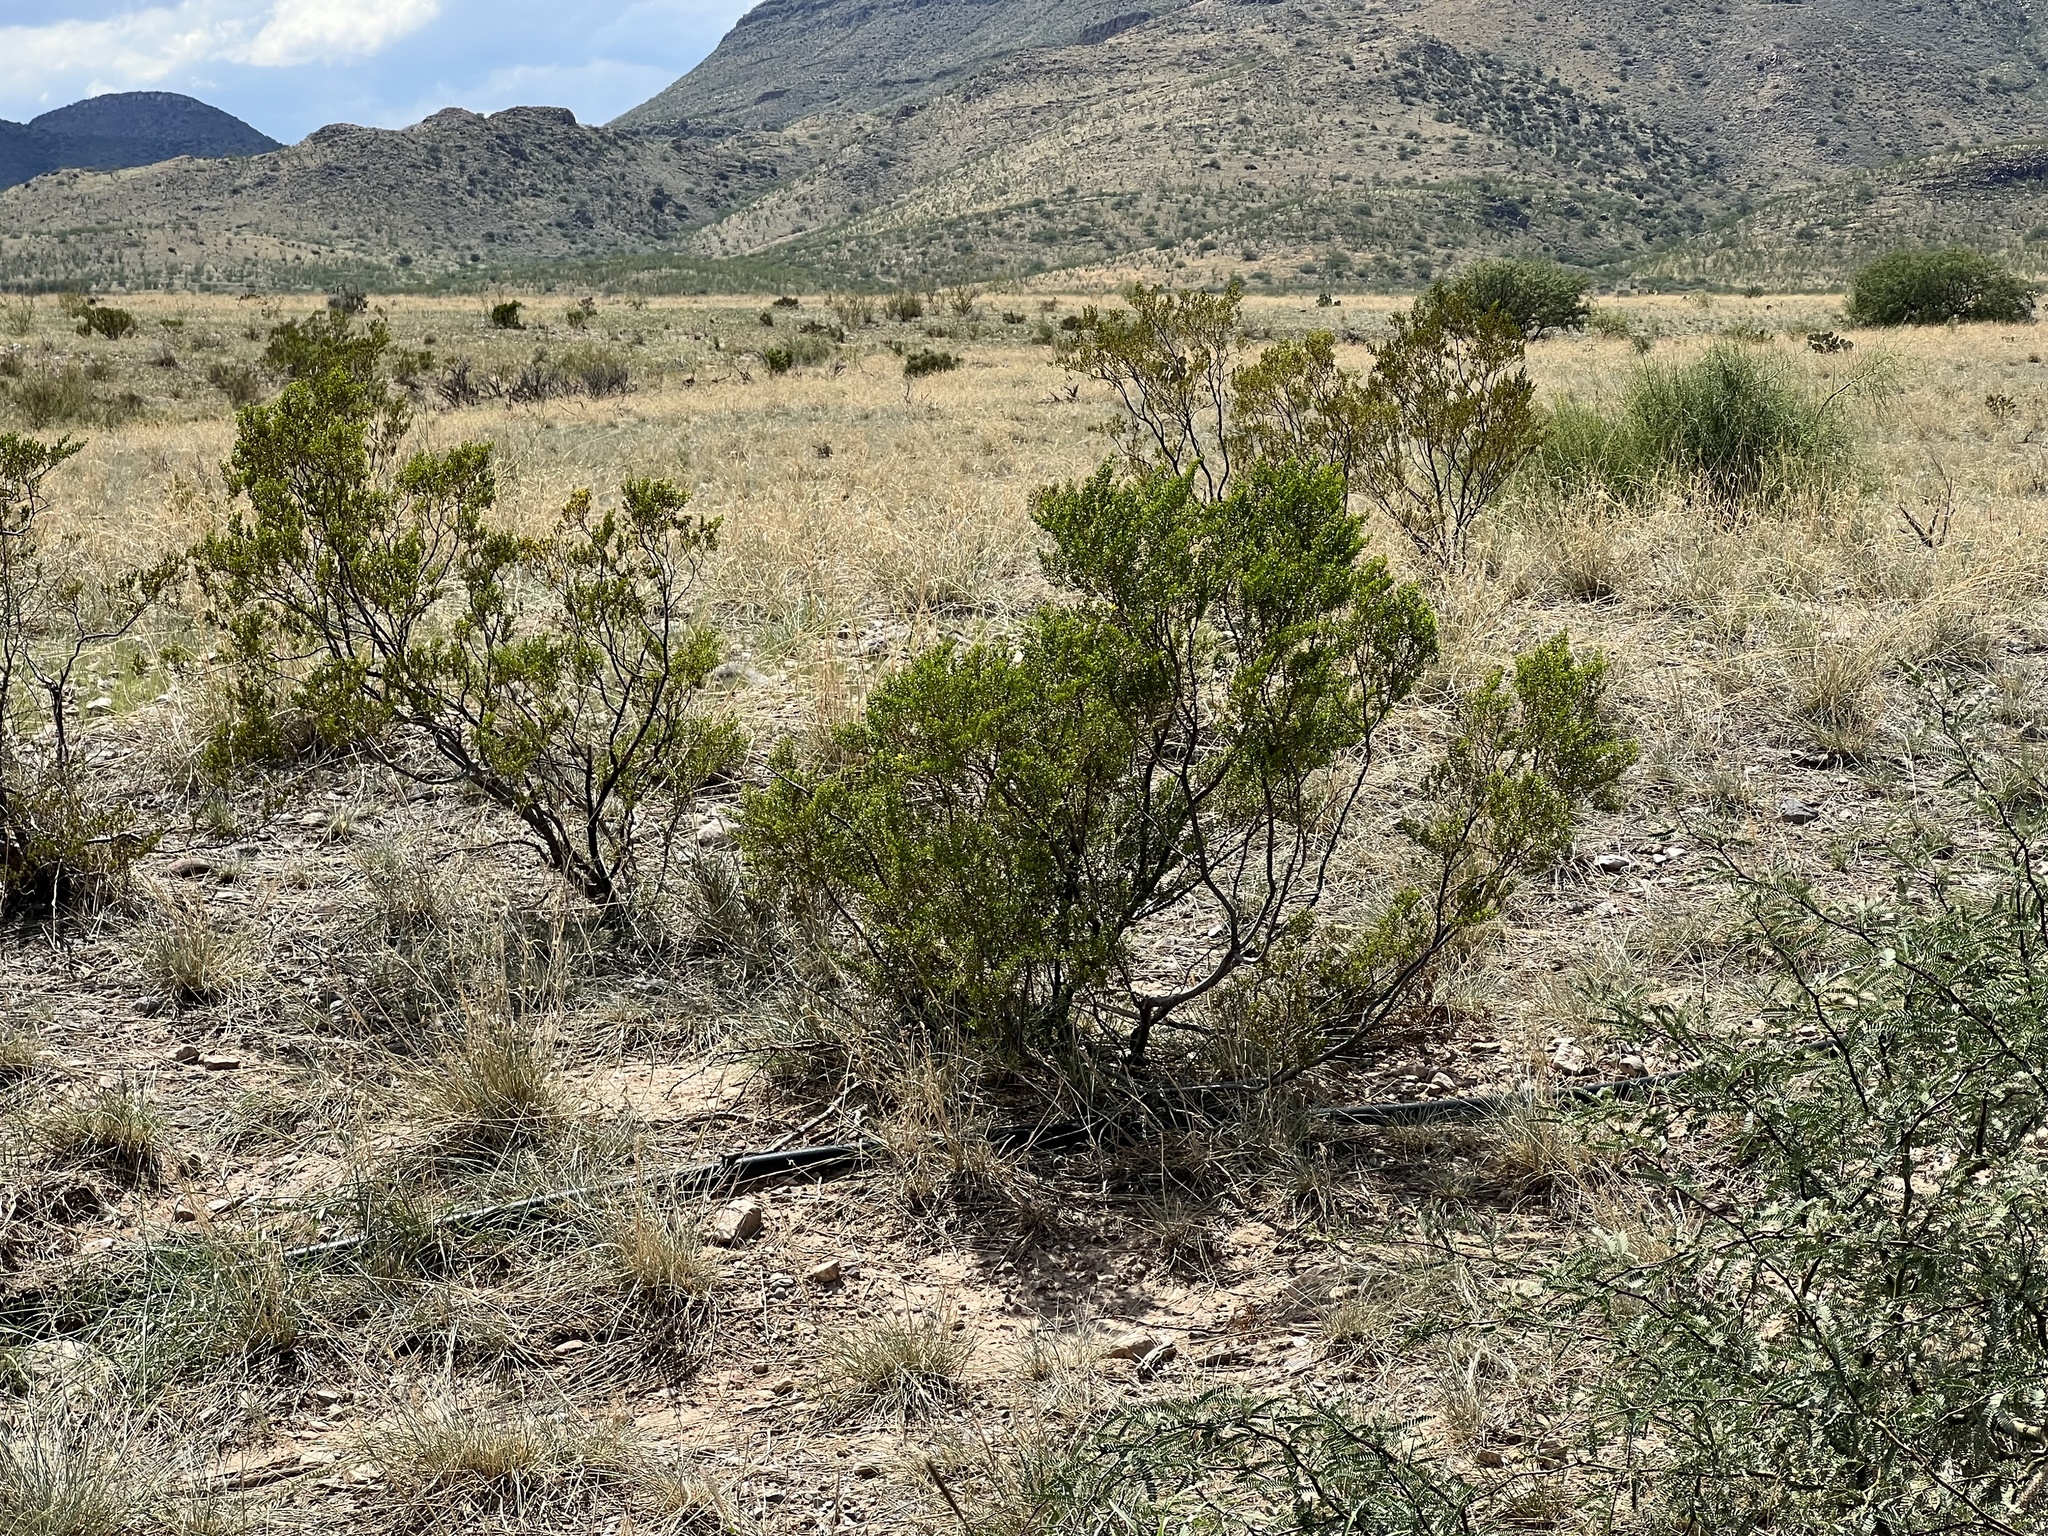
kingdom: Plantae
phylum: Tracheophyta
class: Magnoliopsida
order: Zygophyllales
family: Zygophyllaceae
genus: Larrea
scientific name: Larrea tridentata
